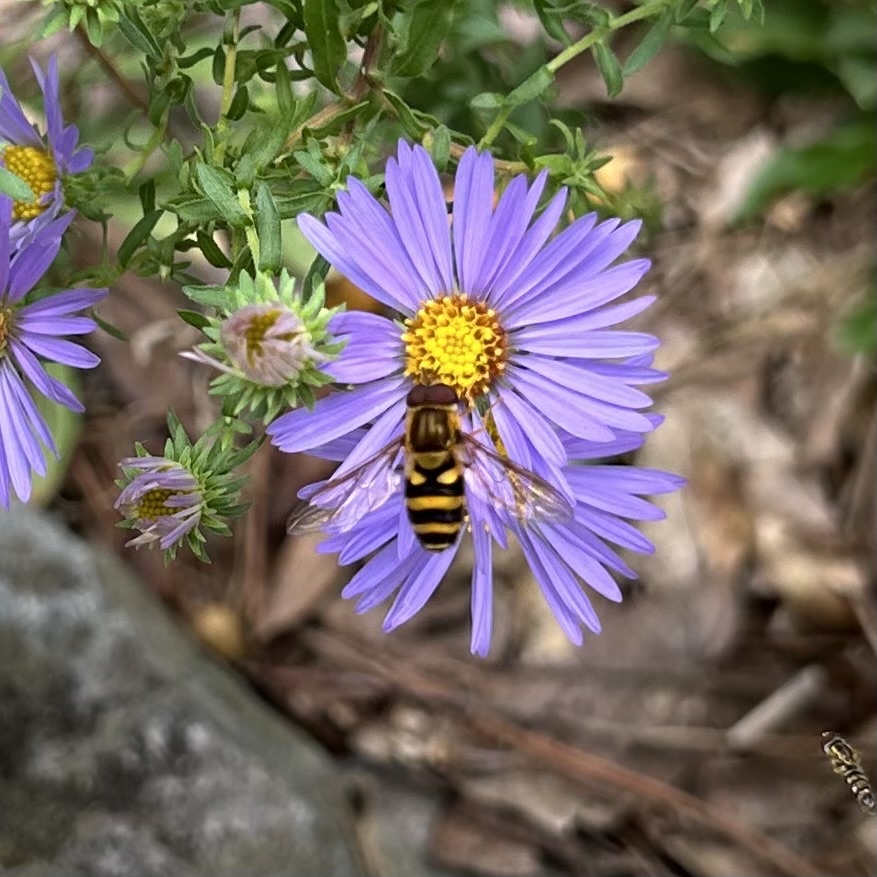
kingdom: Animalia
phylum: Arthropoda
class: Insecta
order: Diptera
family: Syrphidae
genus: Syrphus
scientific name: Syrphus knabi
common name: Eastern flower fly
